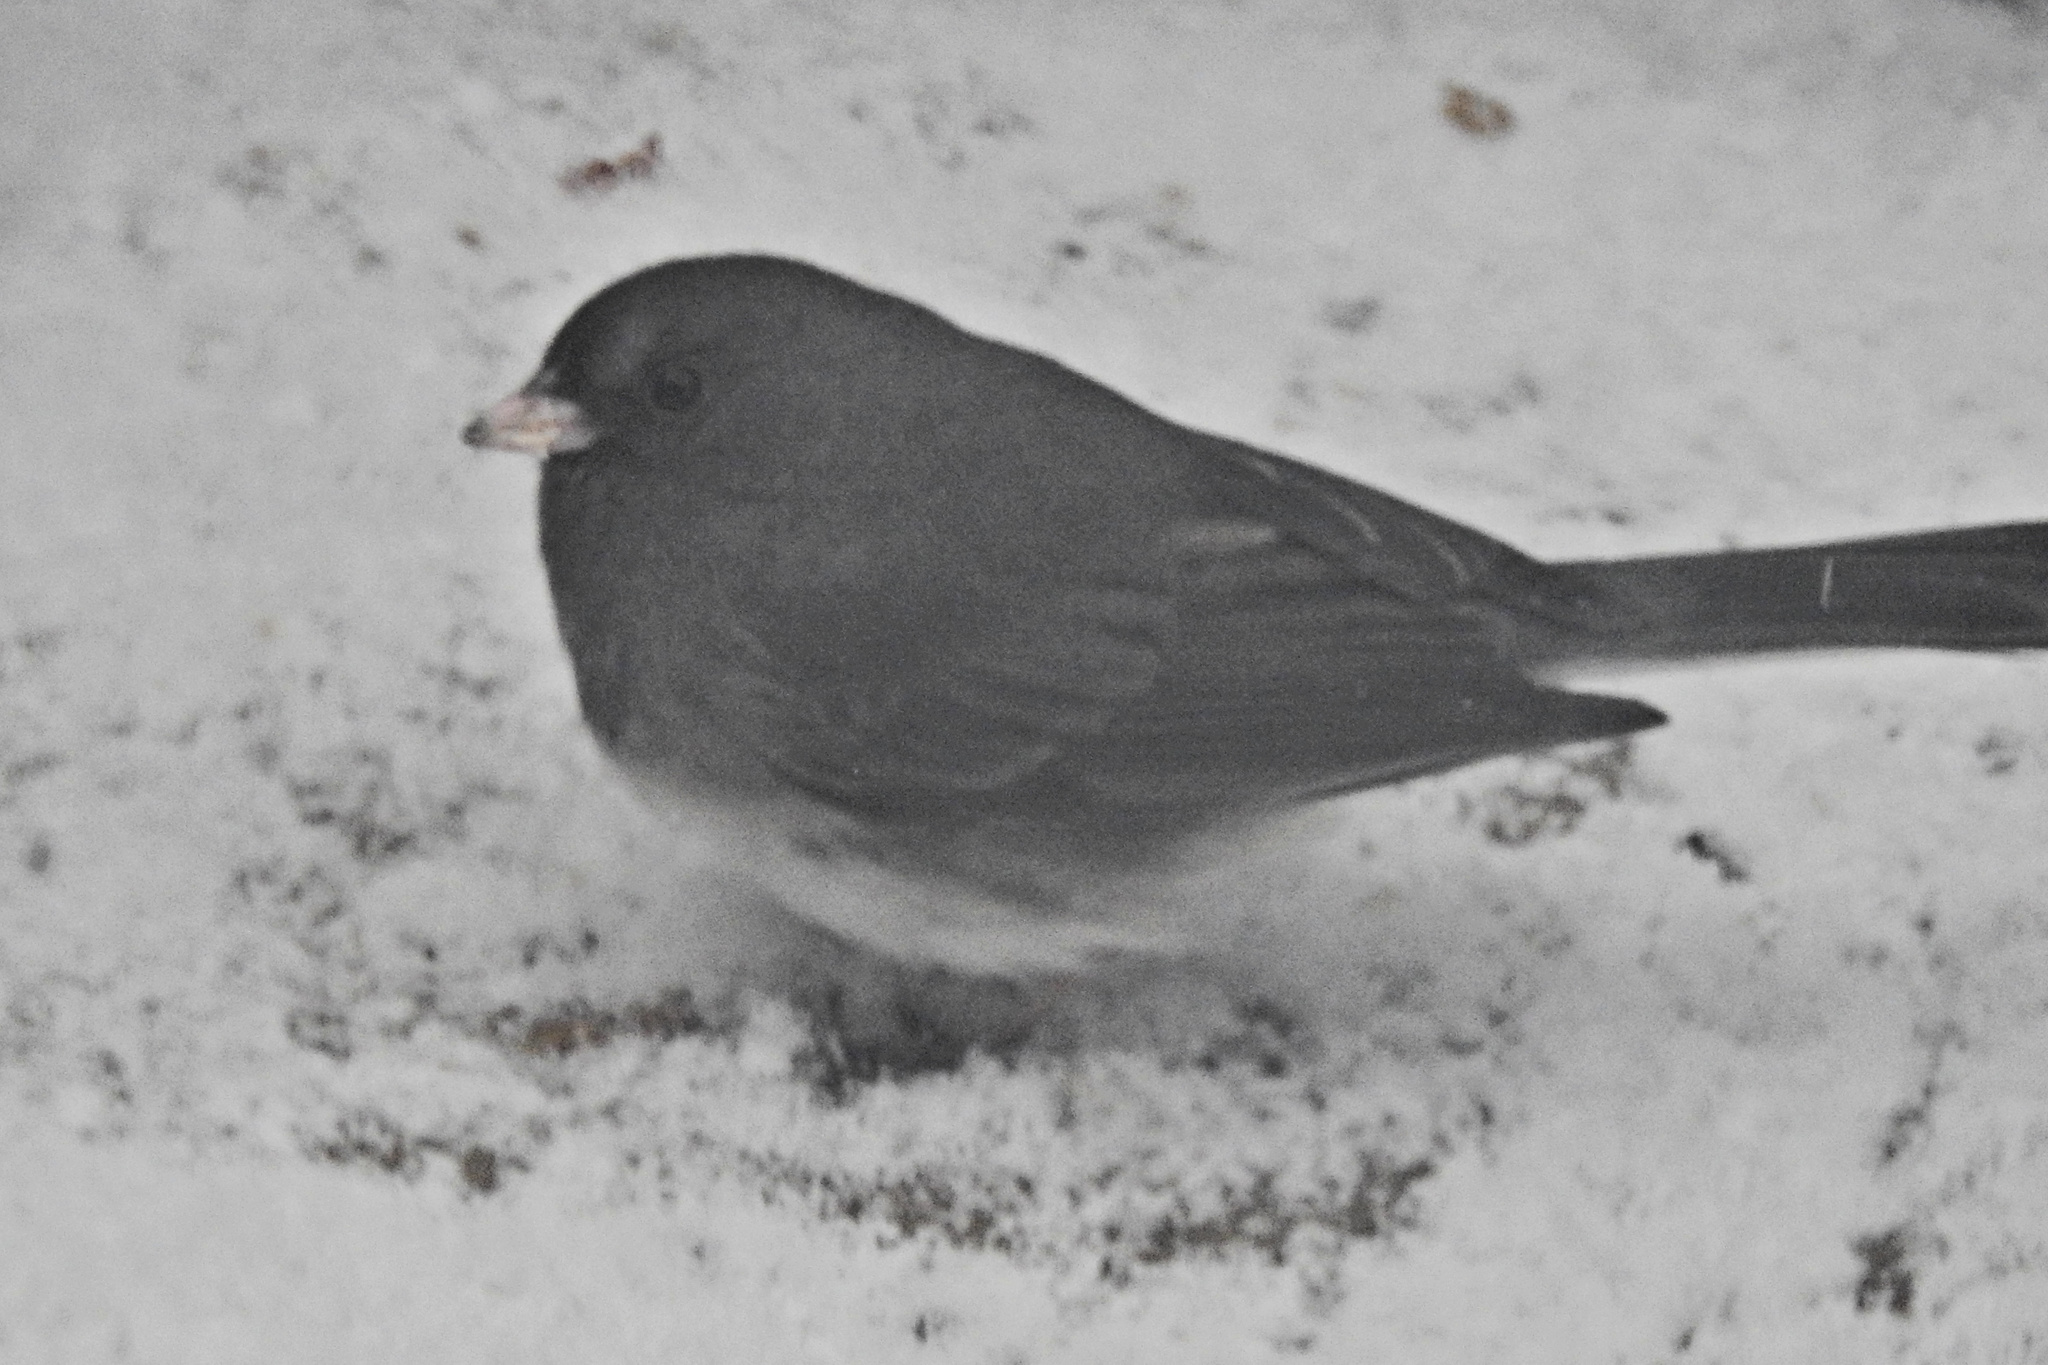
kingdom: Animalia
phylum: Chordata
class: Aves
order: Passeriformes
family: Passerellidae
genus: Junco
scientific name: Junco hyemalis
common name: Dark-eyed junco
